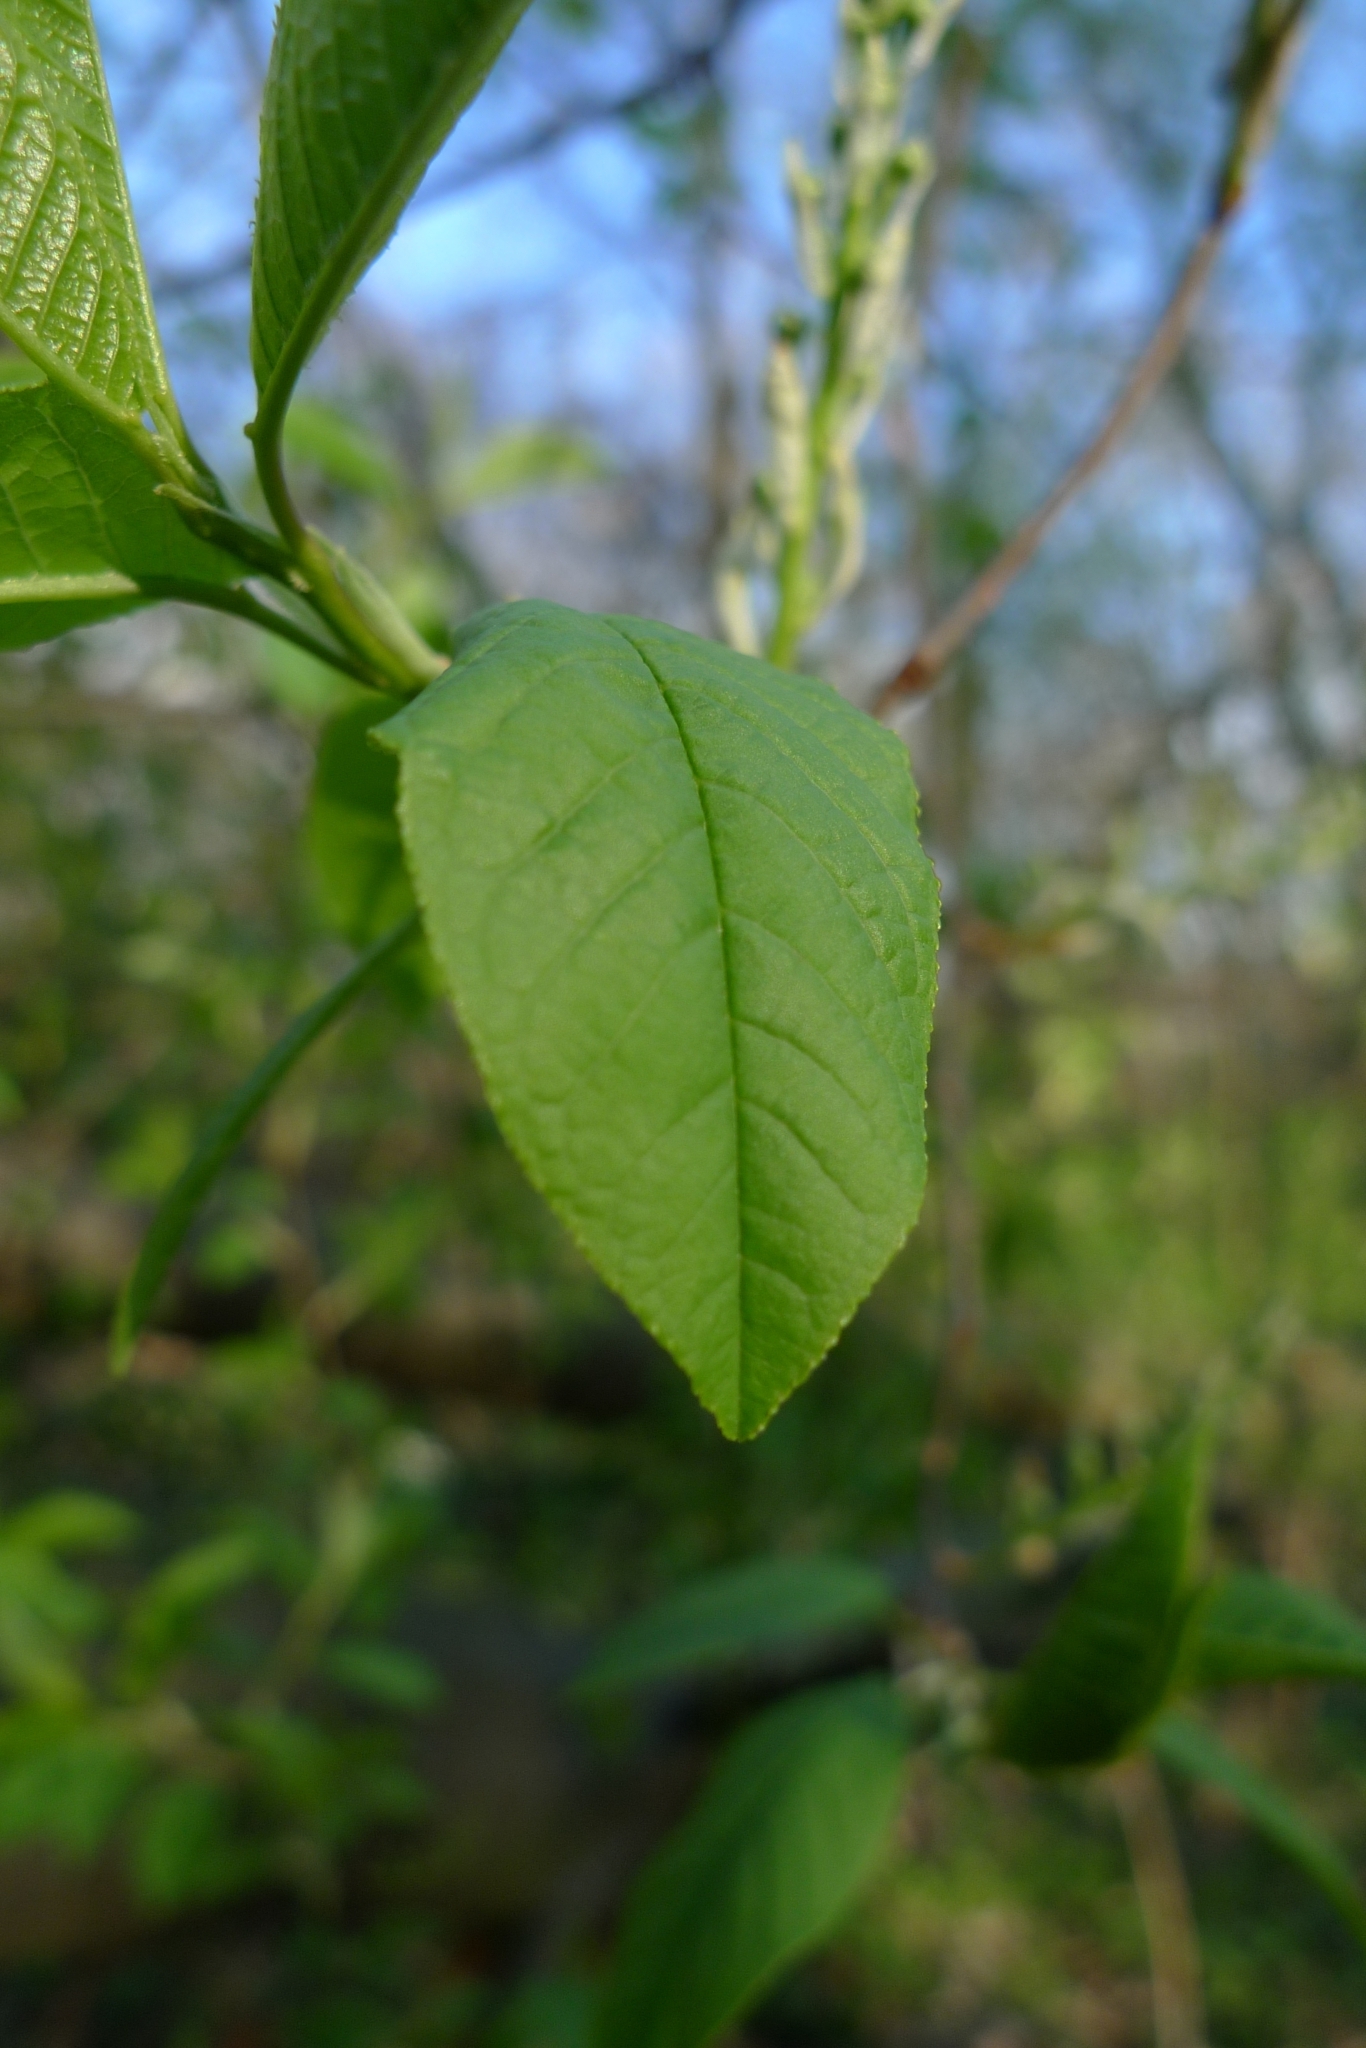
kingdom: Plantae
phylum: Tracheophyta
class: Magnoliopsida
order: Rosales
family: Rosaceae
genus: Prunus
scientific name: Prunus padus
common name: Bird cherry
